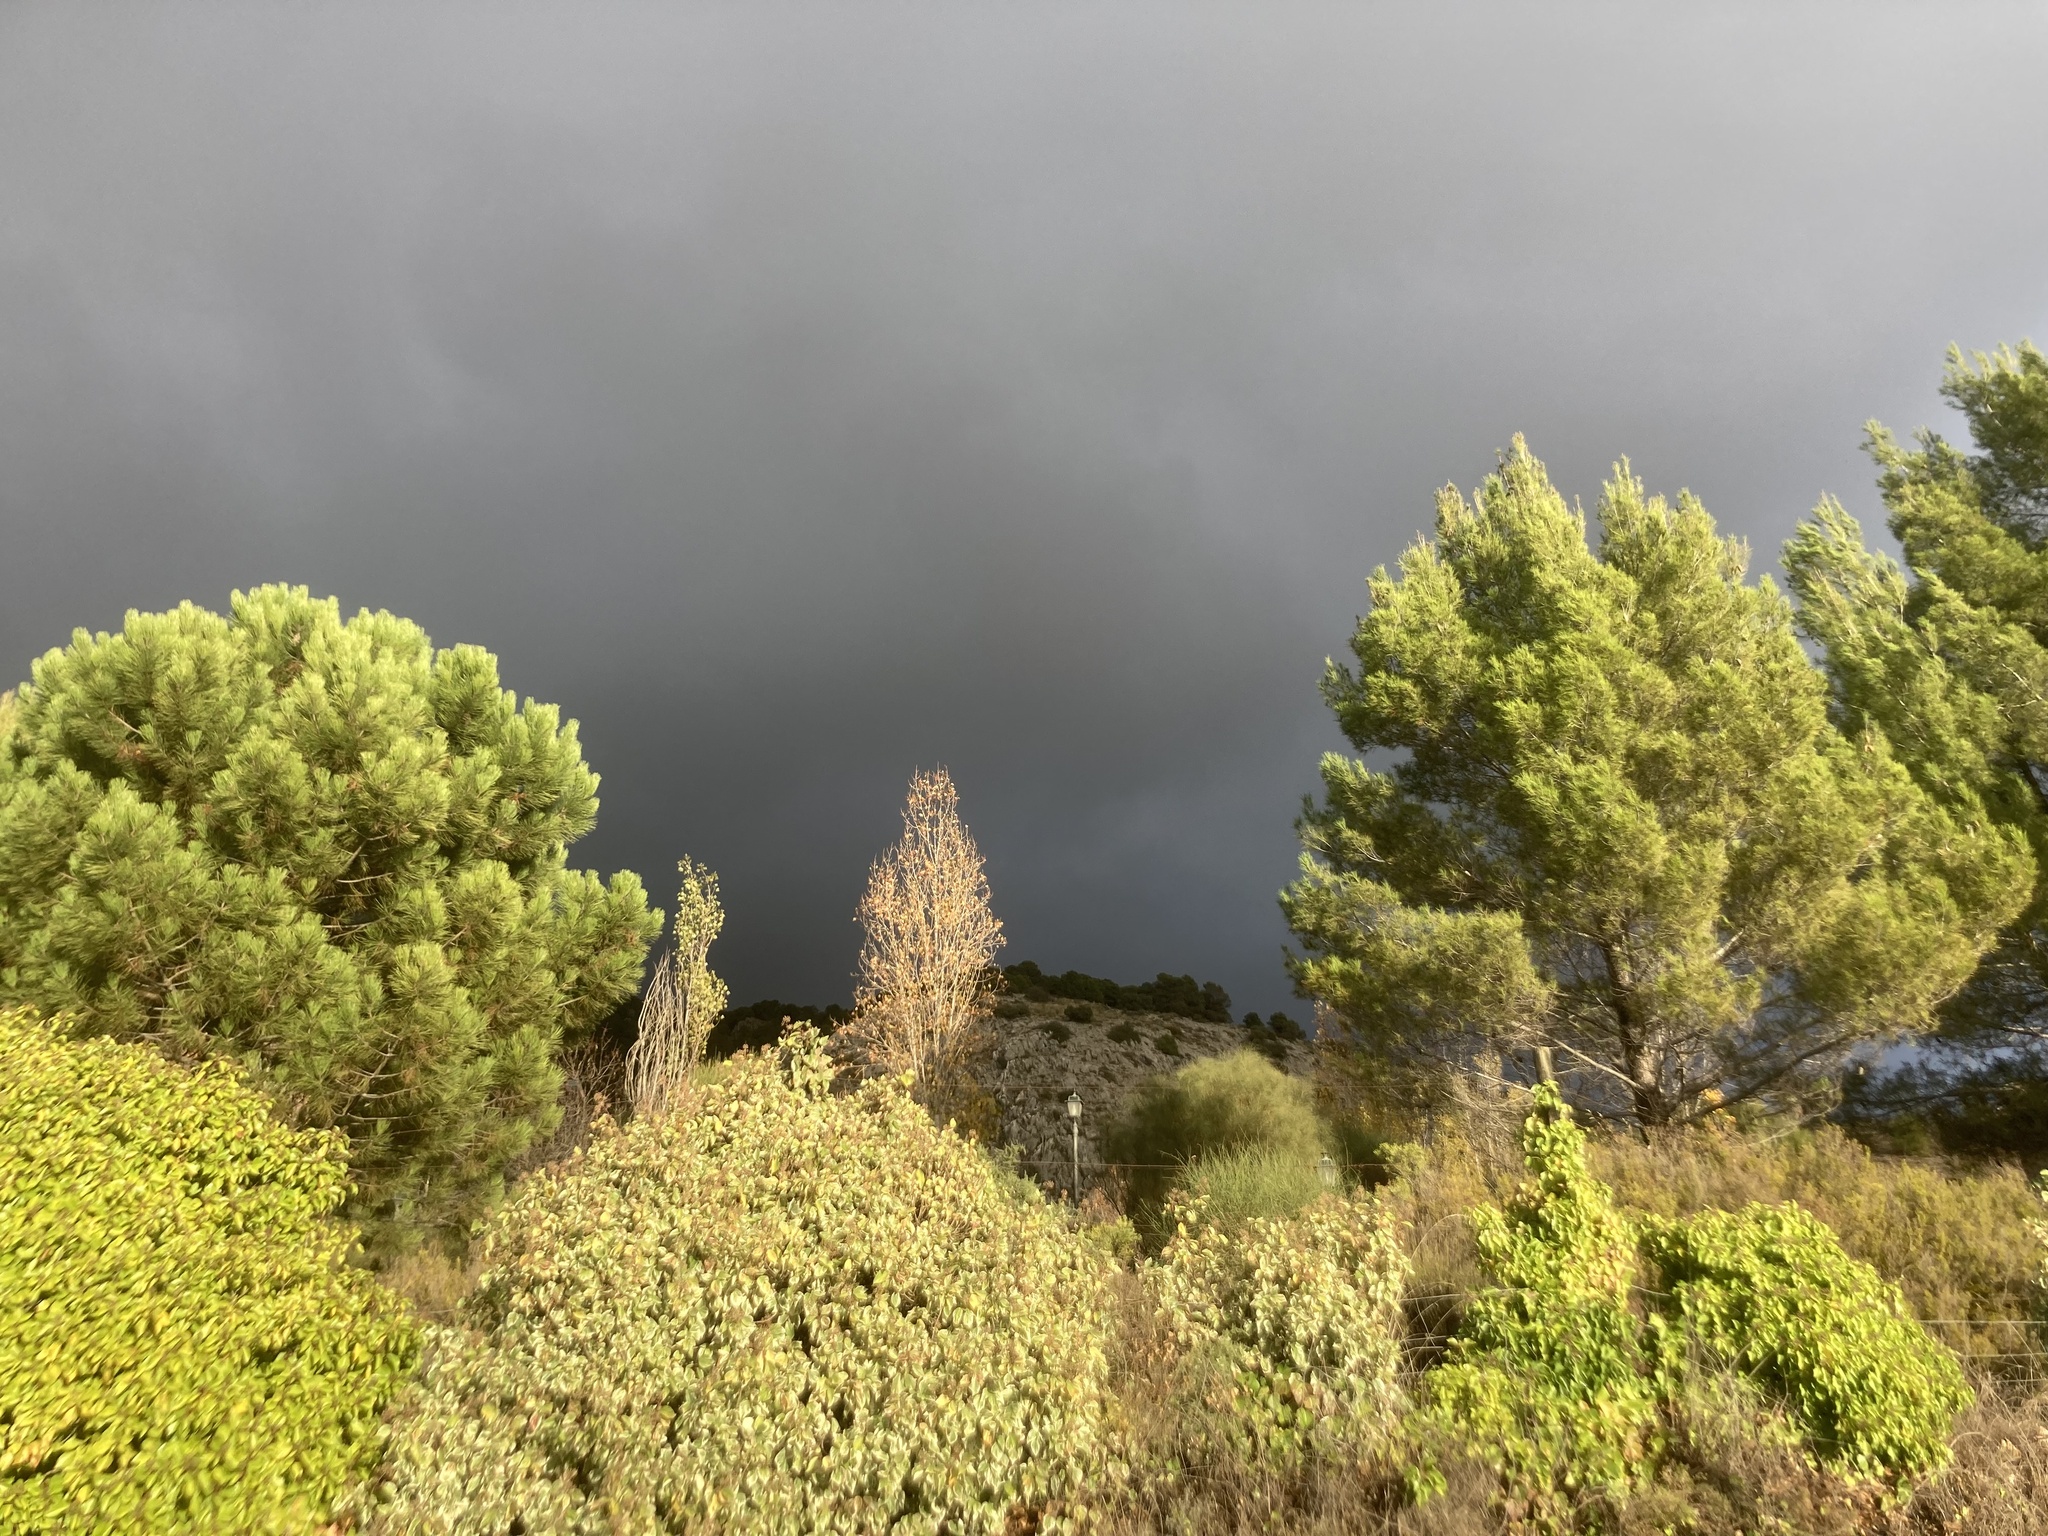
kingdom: Plantae
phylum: Tracheophyta
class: Magnoliopsida
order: Malpighiales
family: Salicaceae
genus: Populus
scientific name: Populus nigra
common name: Black poplar
